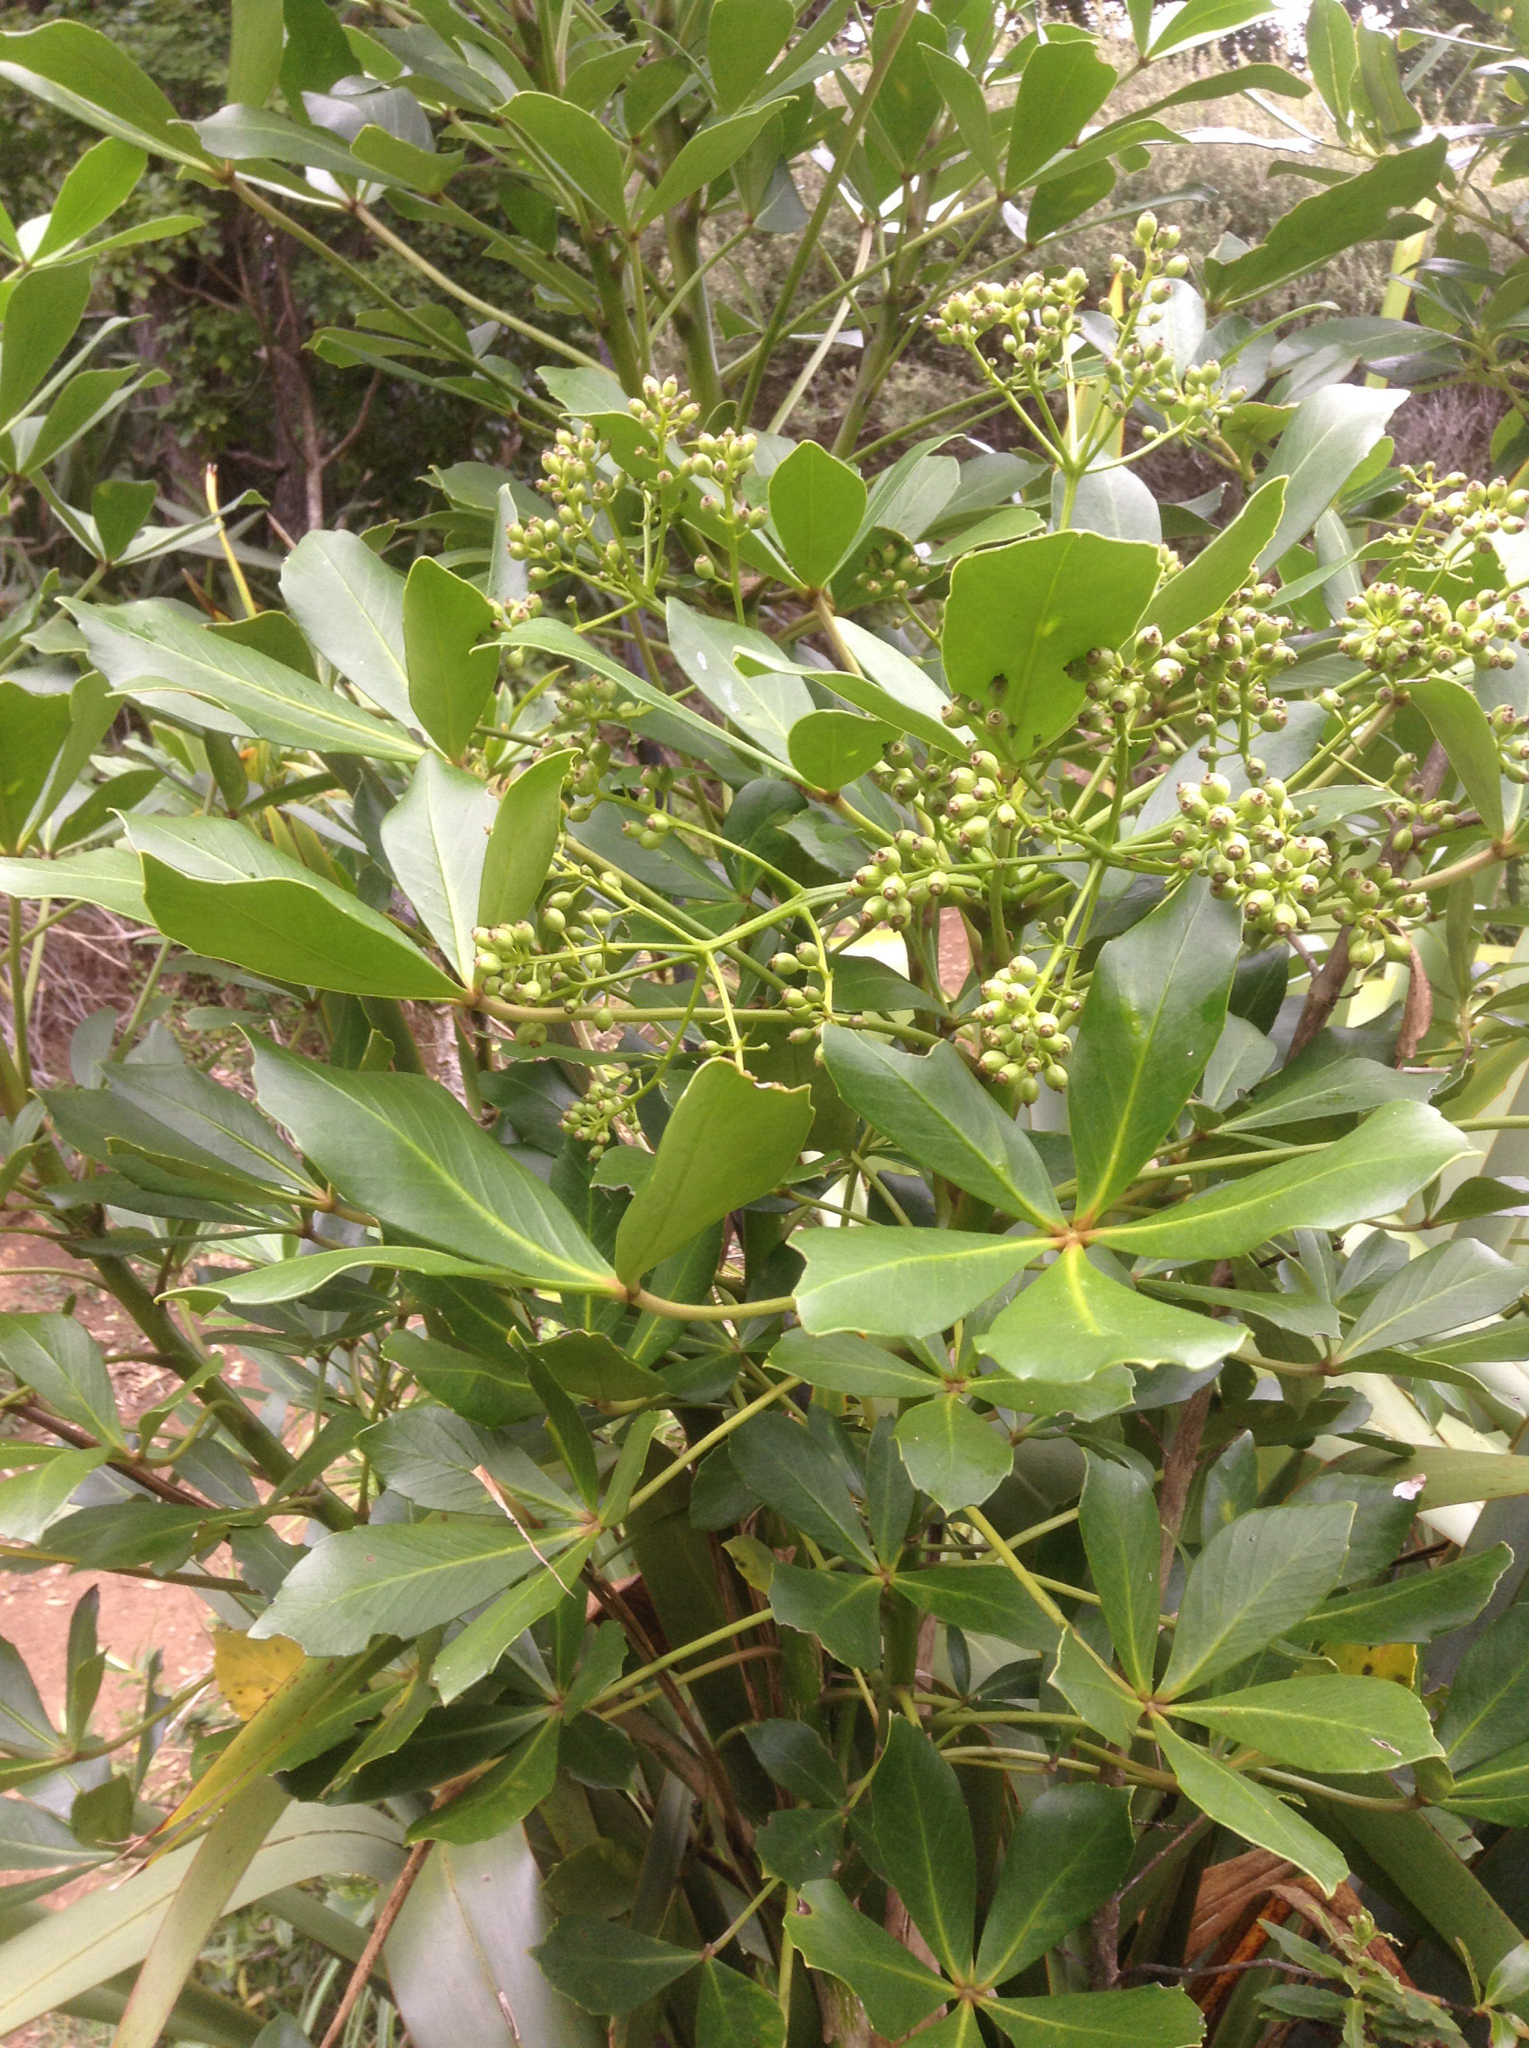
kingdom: Plantae
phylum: Tracheophyta
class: Magnoliopsida
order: Apiales
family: Araliaceae
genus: Pseudopanax
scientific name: Pseudopanax lessonii
